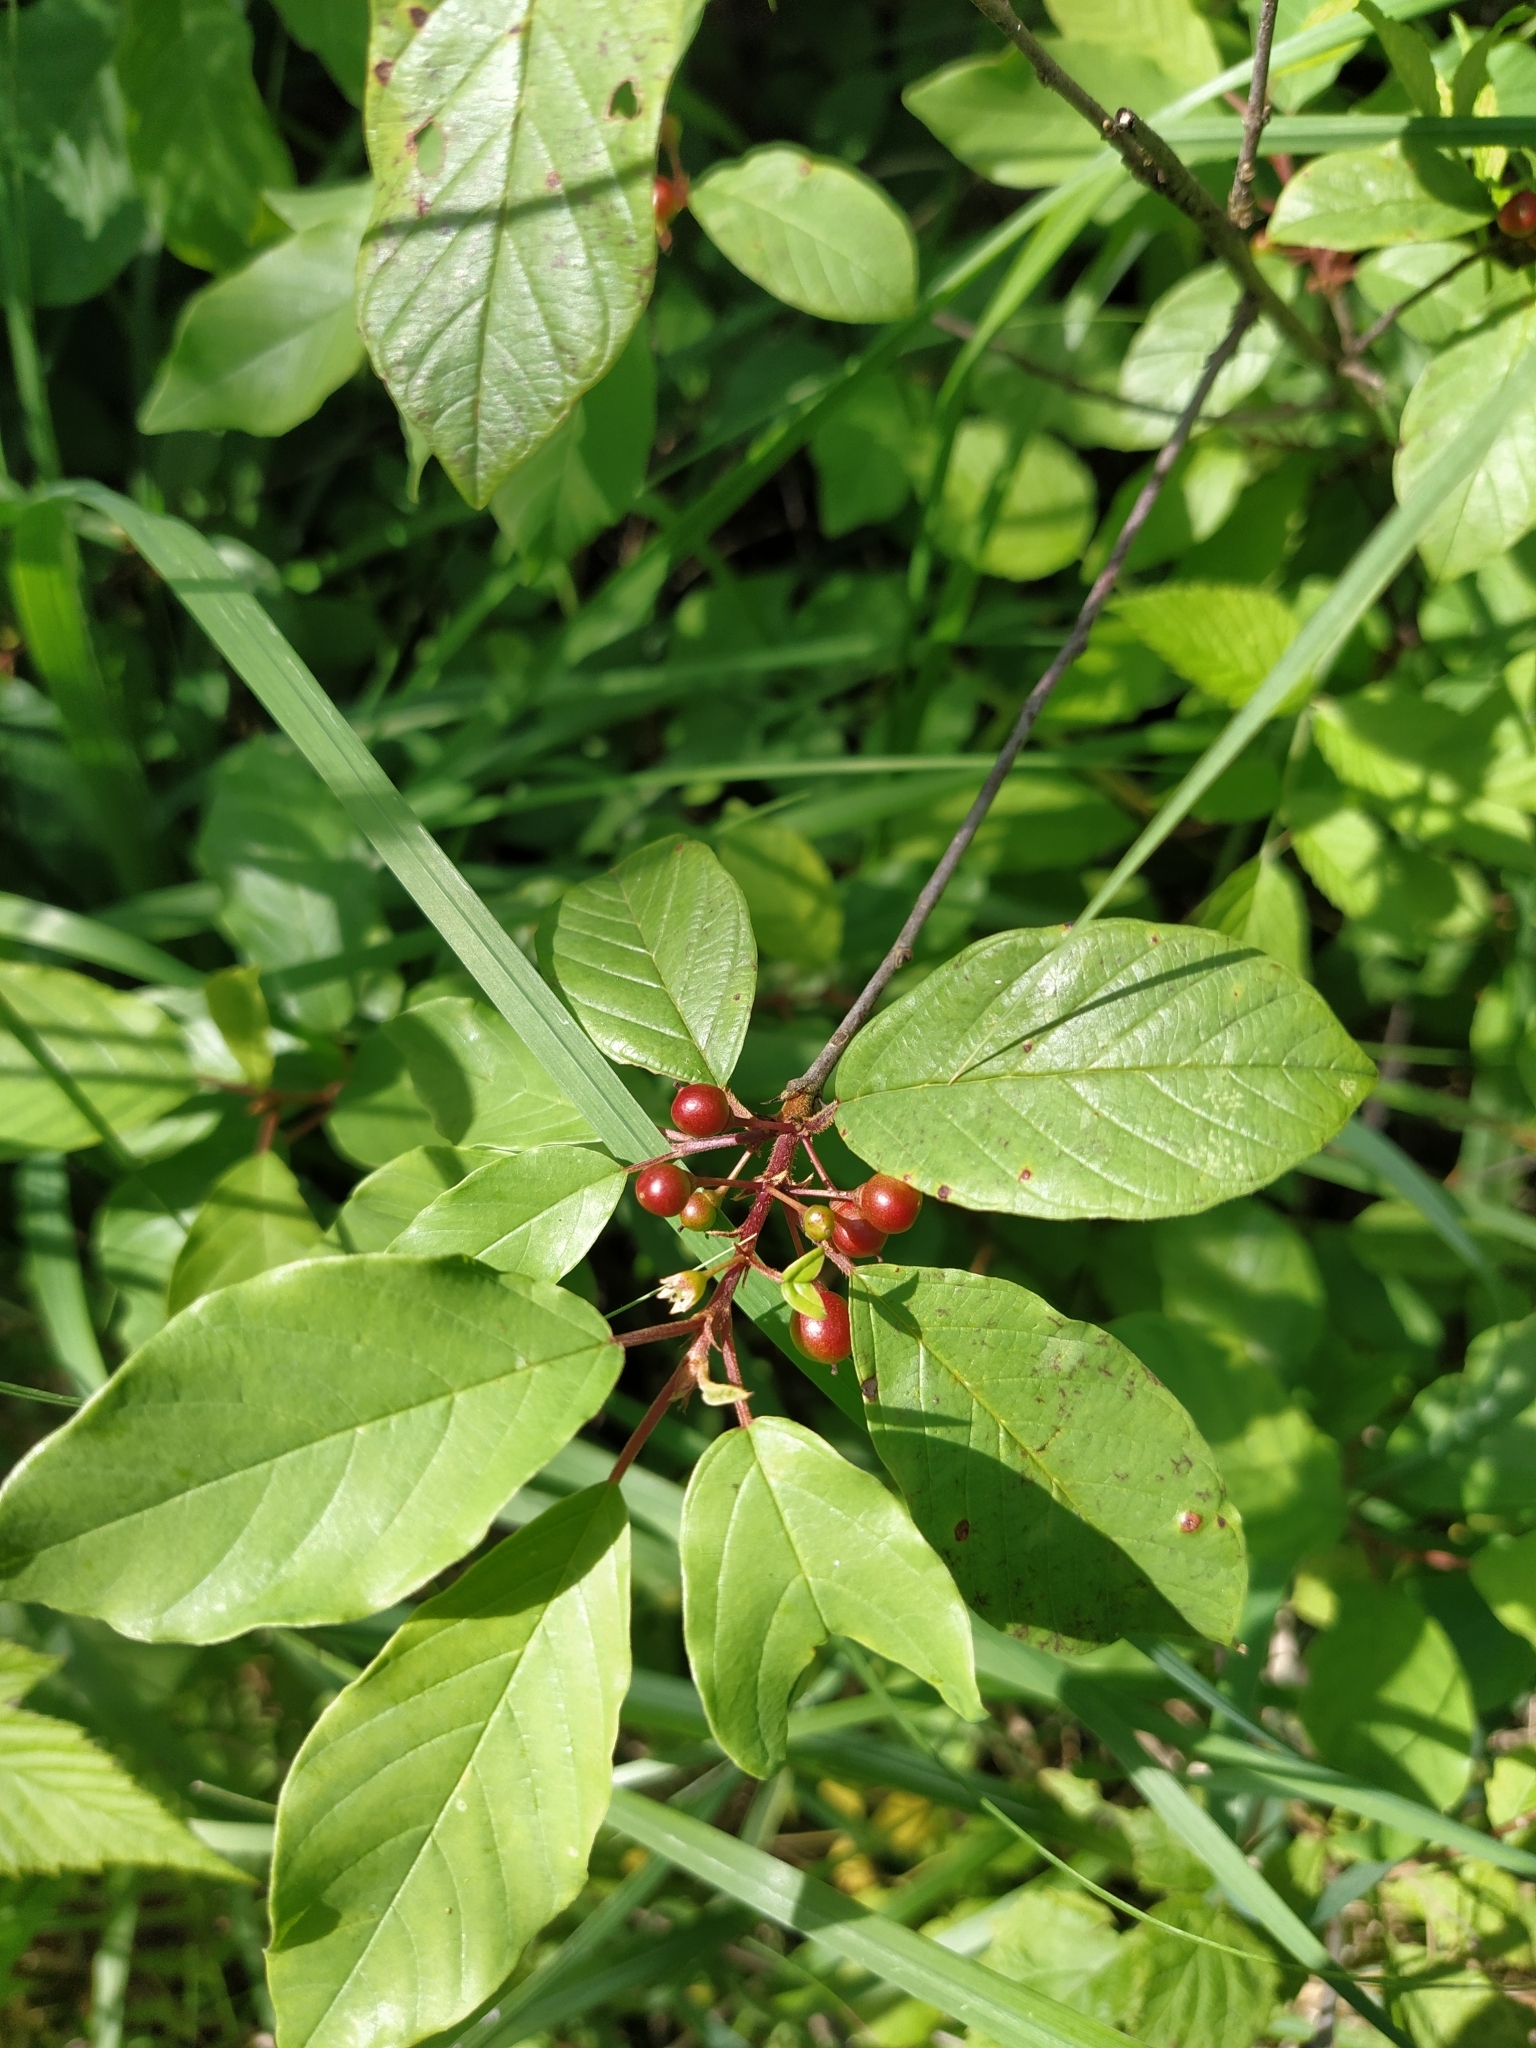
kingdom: Plantae
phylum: Tracheophyta
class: Magnoliopsida
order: Rosales
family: Rhamnaceae
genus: Frangula
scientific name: Frangula alnus
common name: Alder buckthorn
